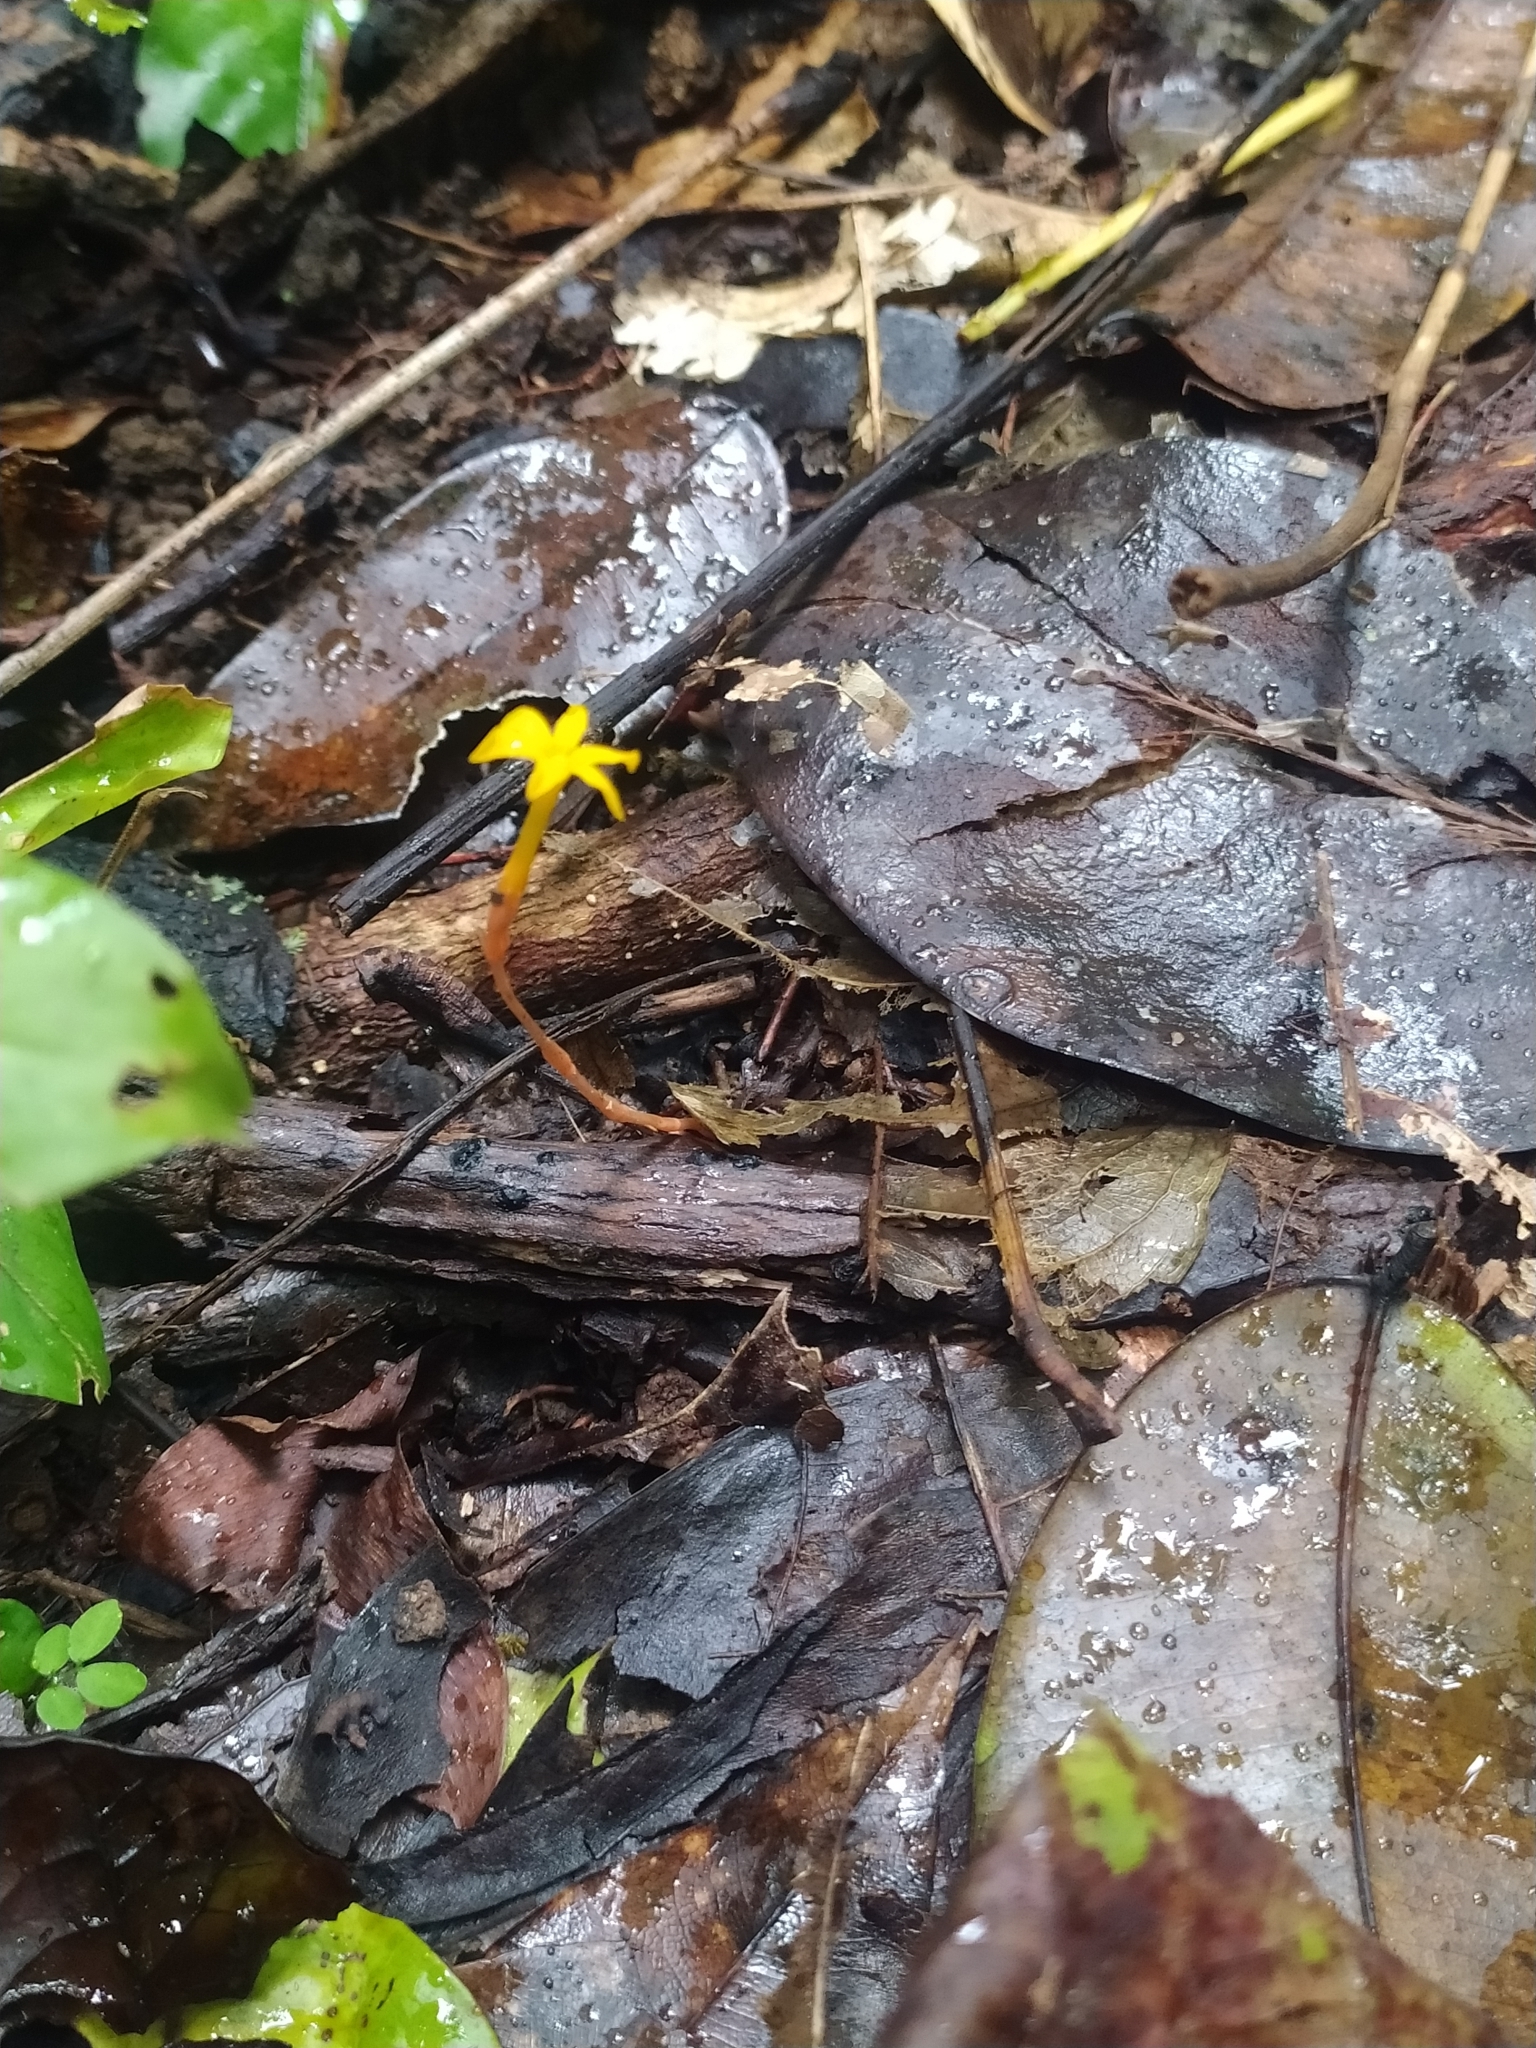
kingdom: Plantae
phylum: Tracheophyta
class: Magnoliopsida
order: Gentianales
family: Gentianaceae
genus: Voyria
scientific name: Voyria aurantiaca
